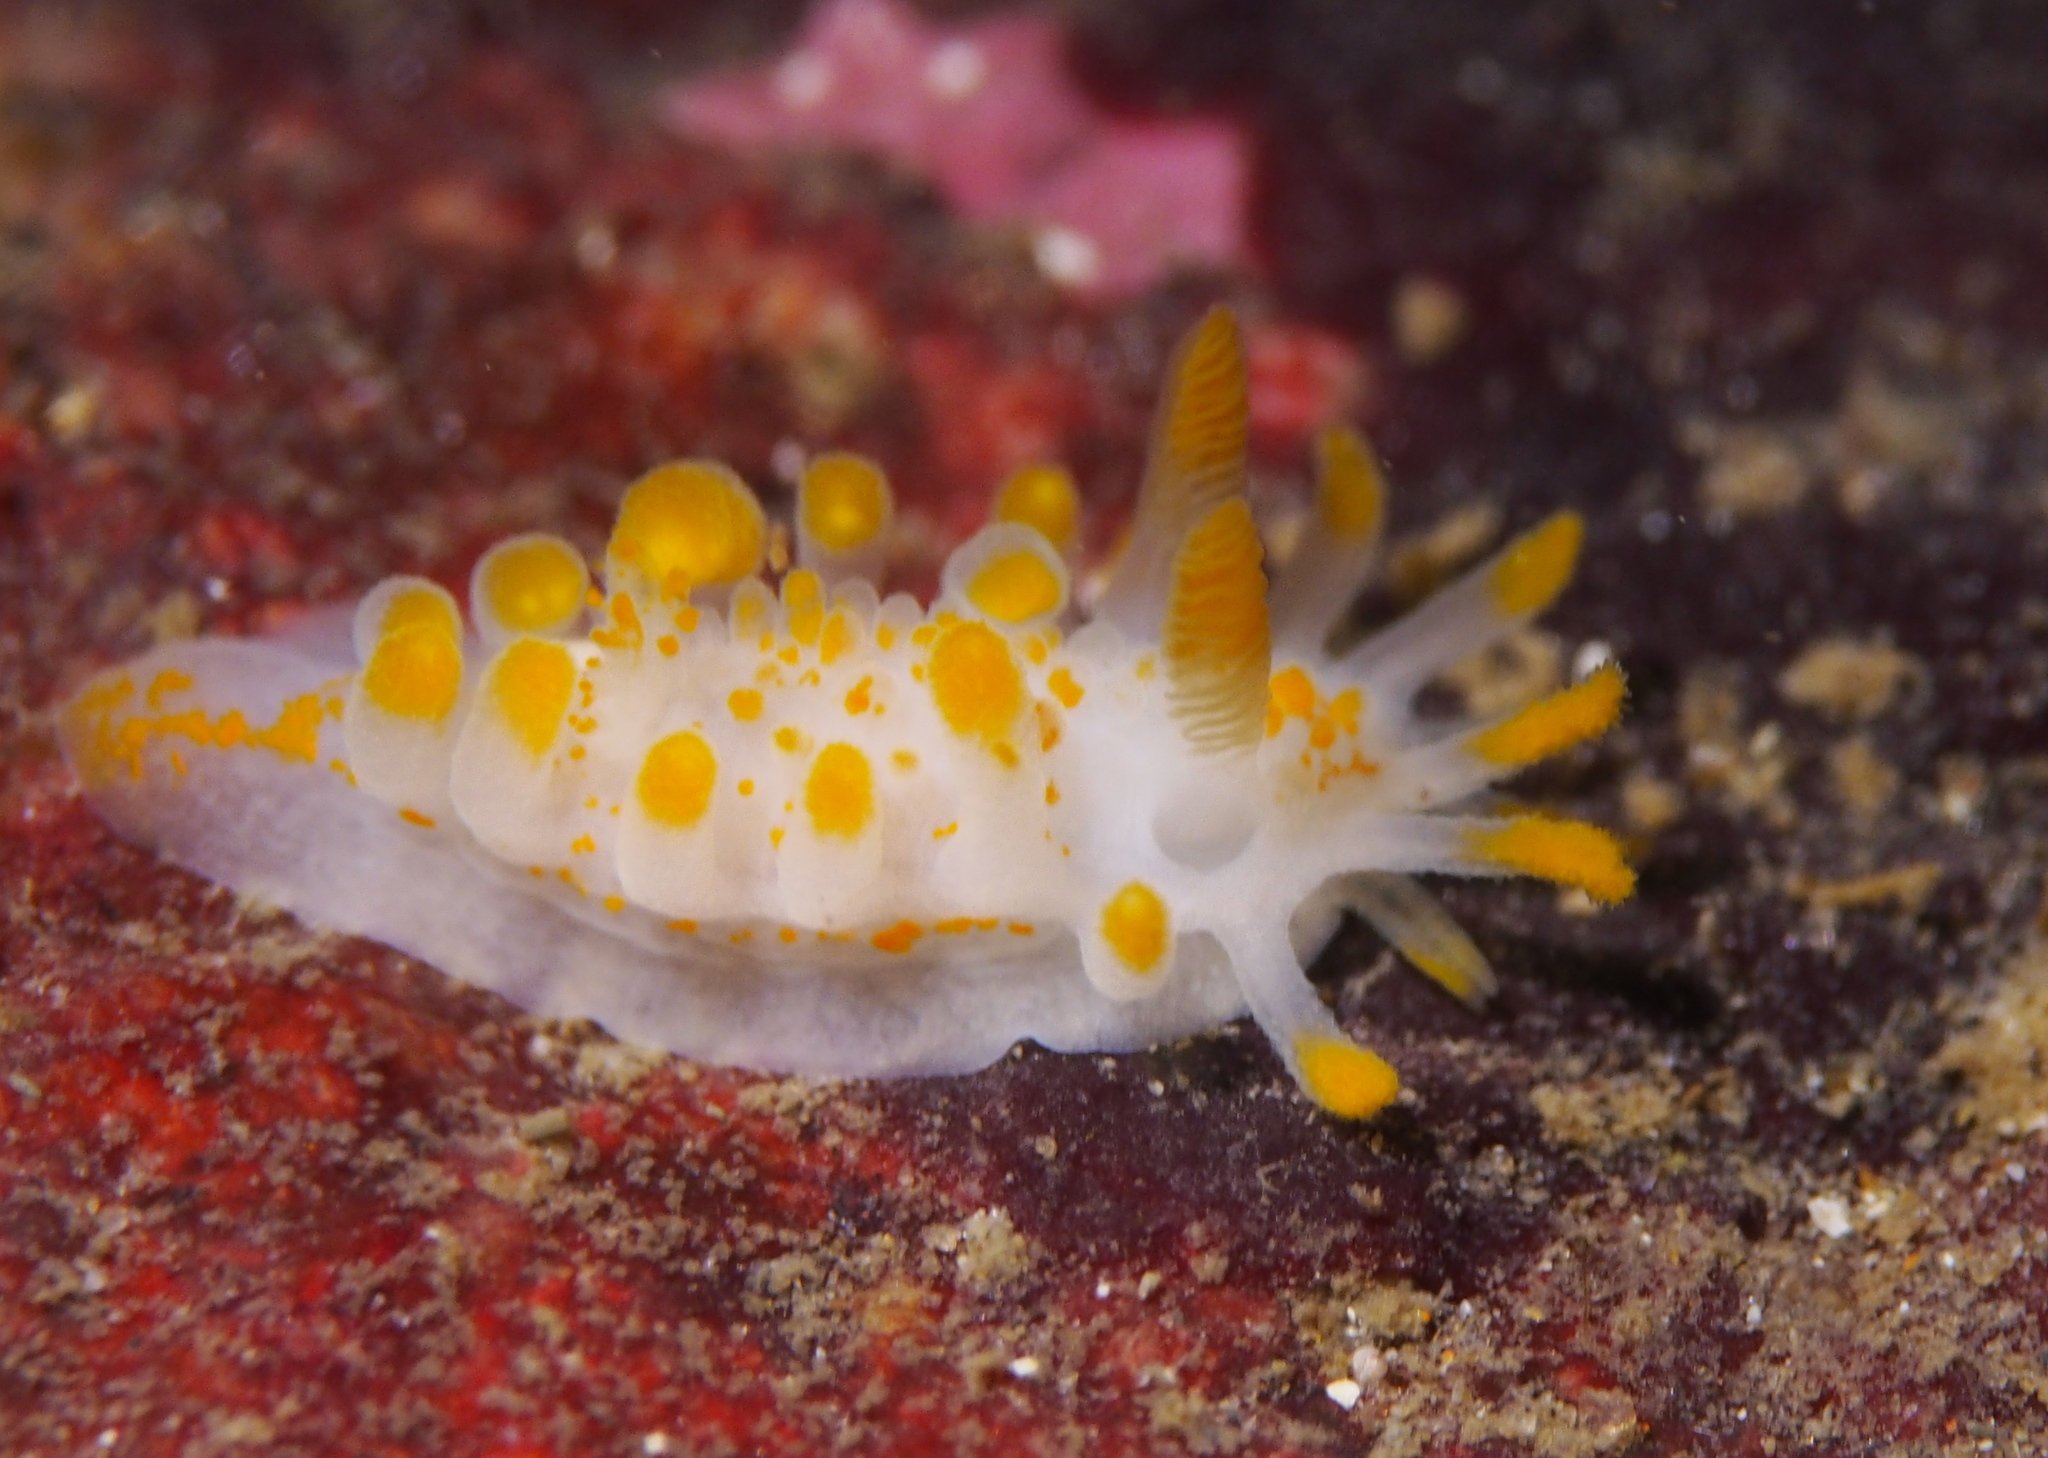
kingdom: Animalia
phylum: Mollusca
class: Gastropoda
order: Nudibranchia
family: Polyceridae
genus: Limacia
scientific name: Limacia clavigera
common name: Orange-clubbed sea slug
